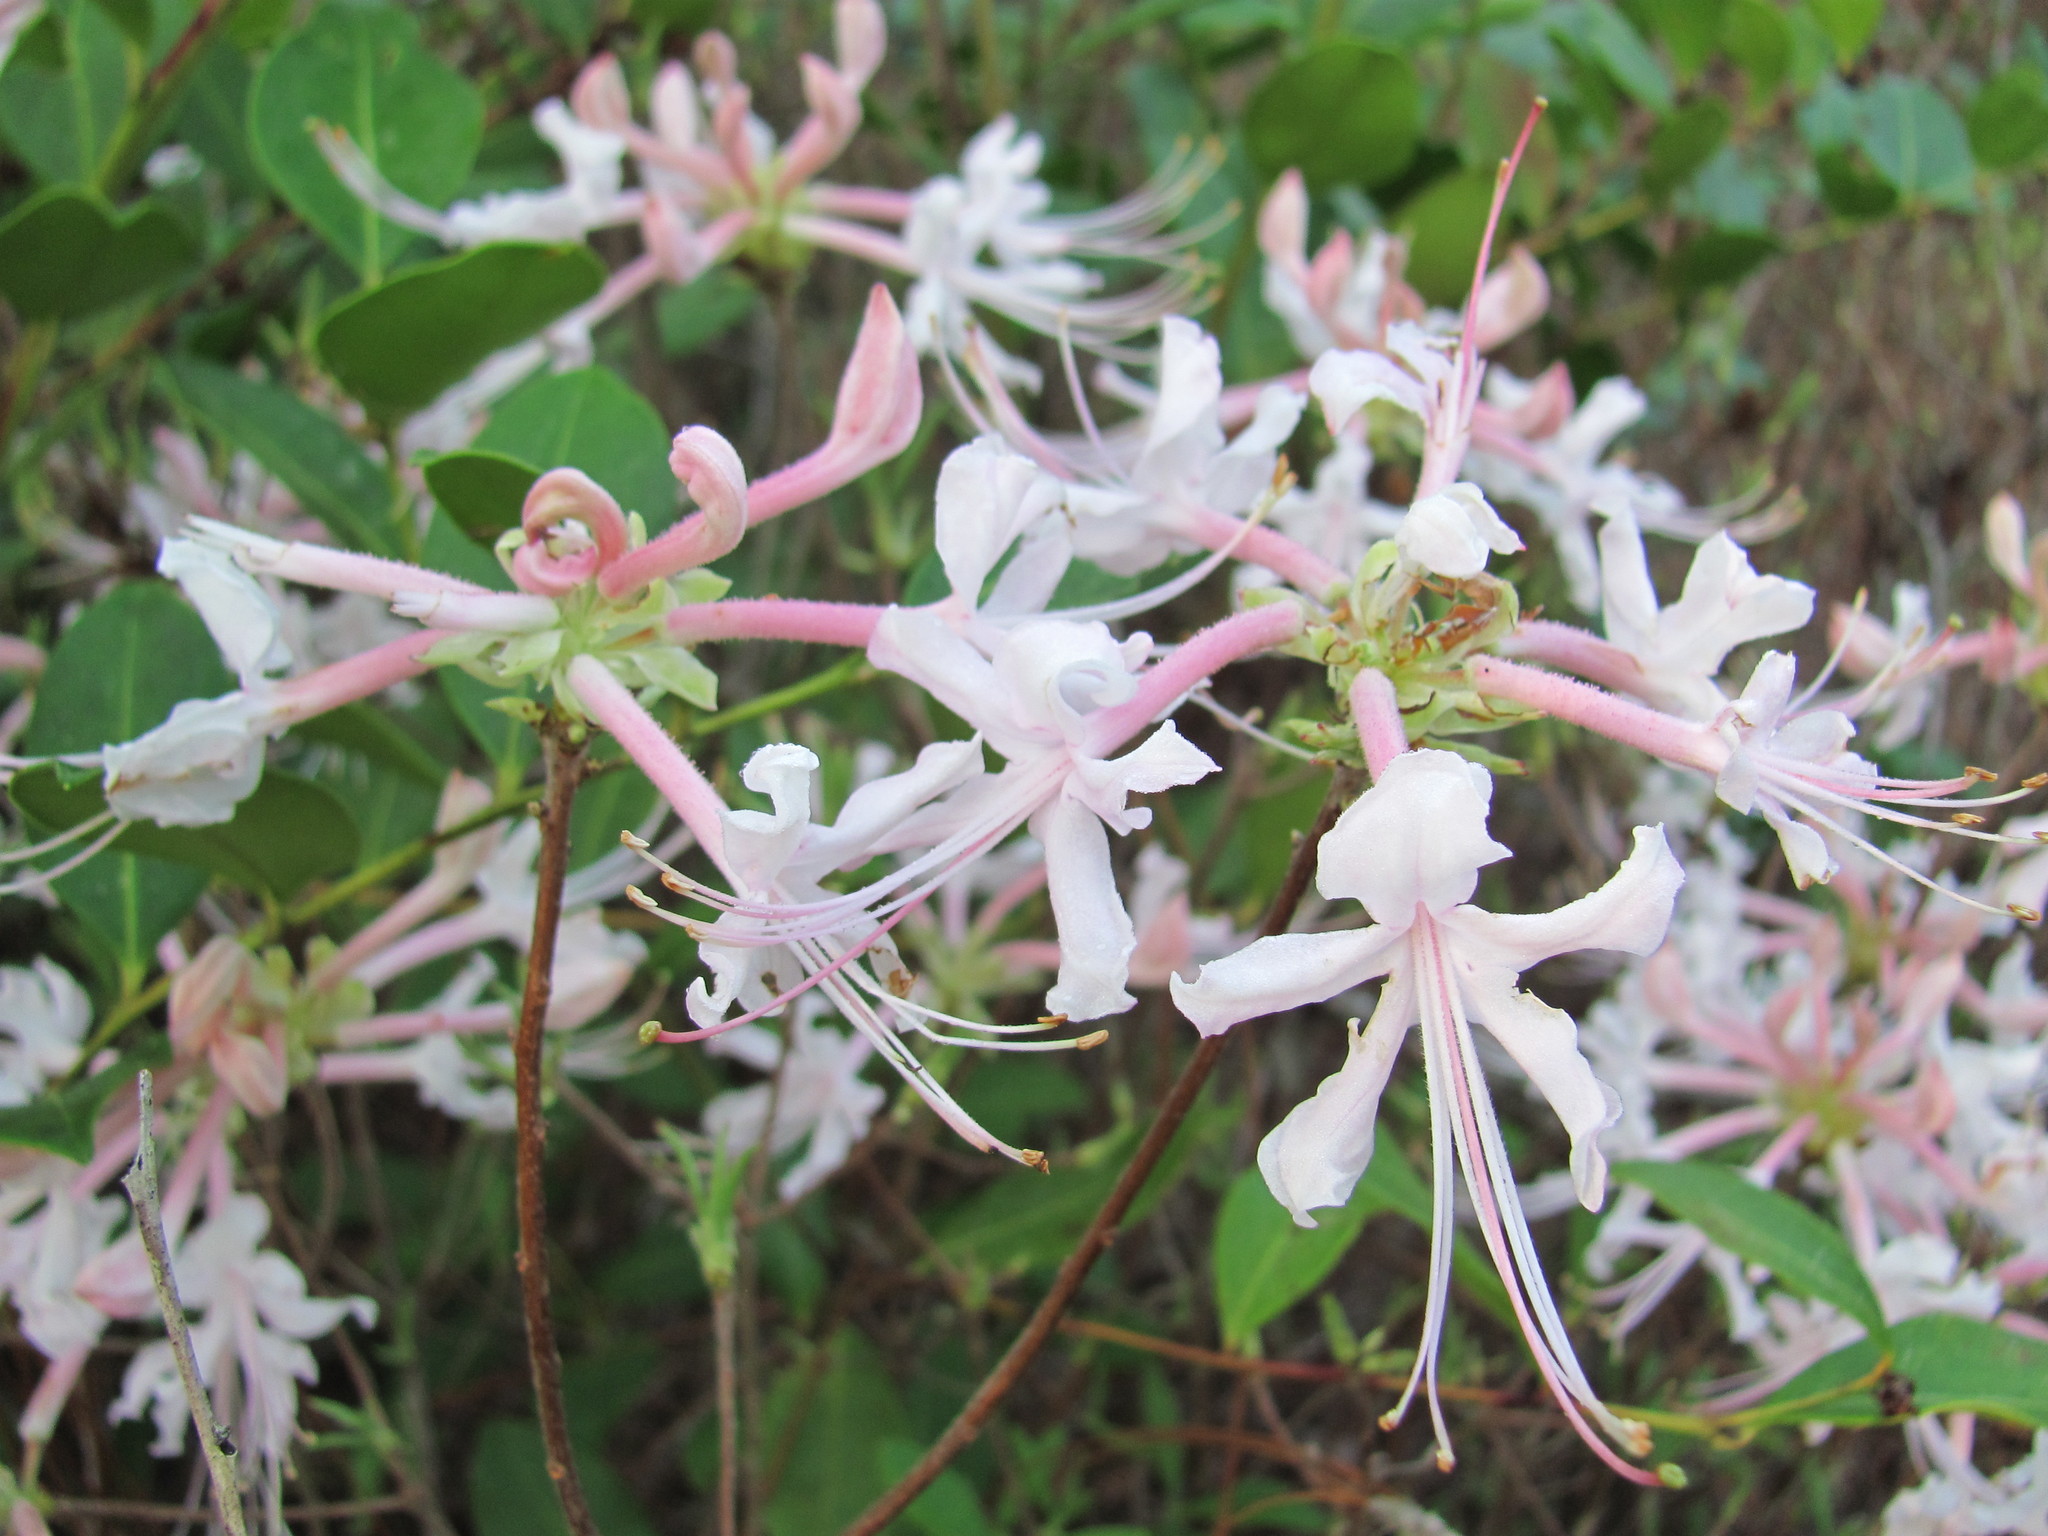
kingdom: Plantae
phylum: Tracheophyta
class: Magnoliopsida
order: Ericales
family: Ericaceae
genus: Rhododendron
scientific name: Rhododendron canescens
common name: Mountain azalea
